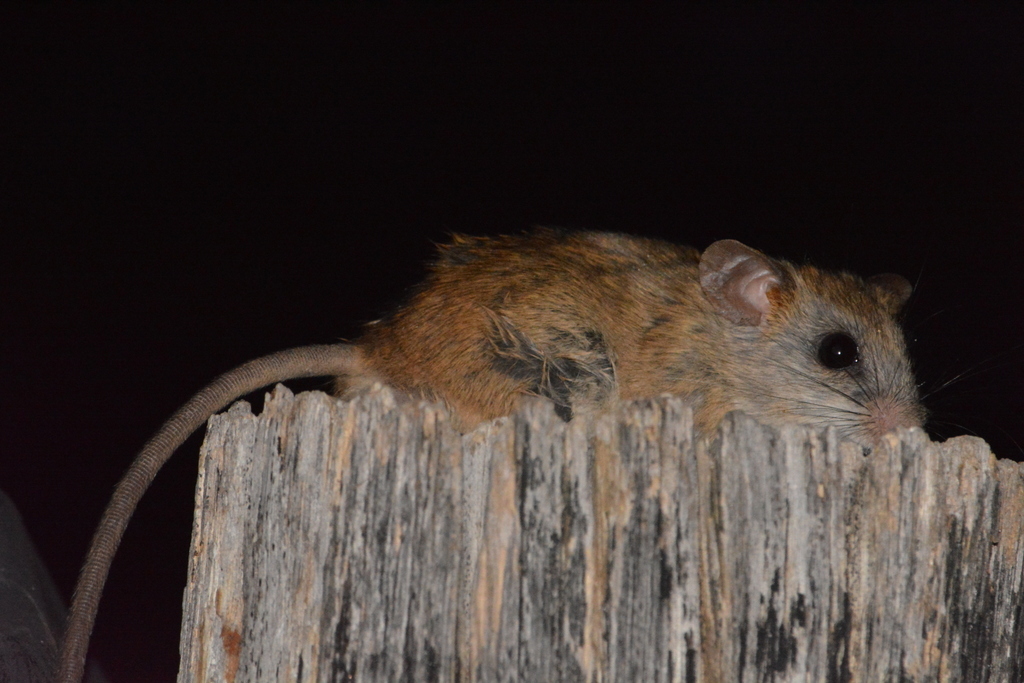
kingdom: Animalia
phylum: Chordata
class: Mammalia
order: Rodentia
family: Muridae
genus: Aethomys
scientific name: Aethomys chrysophilus
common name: Red veld aethomys
